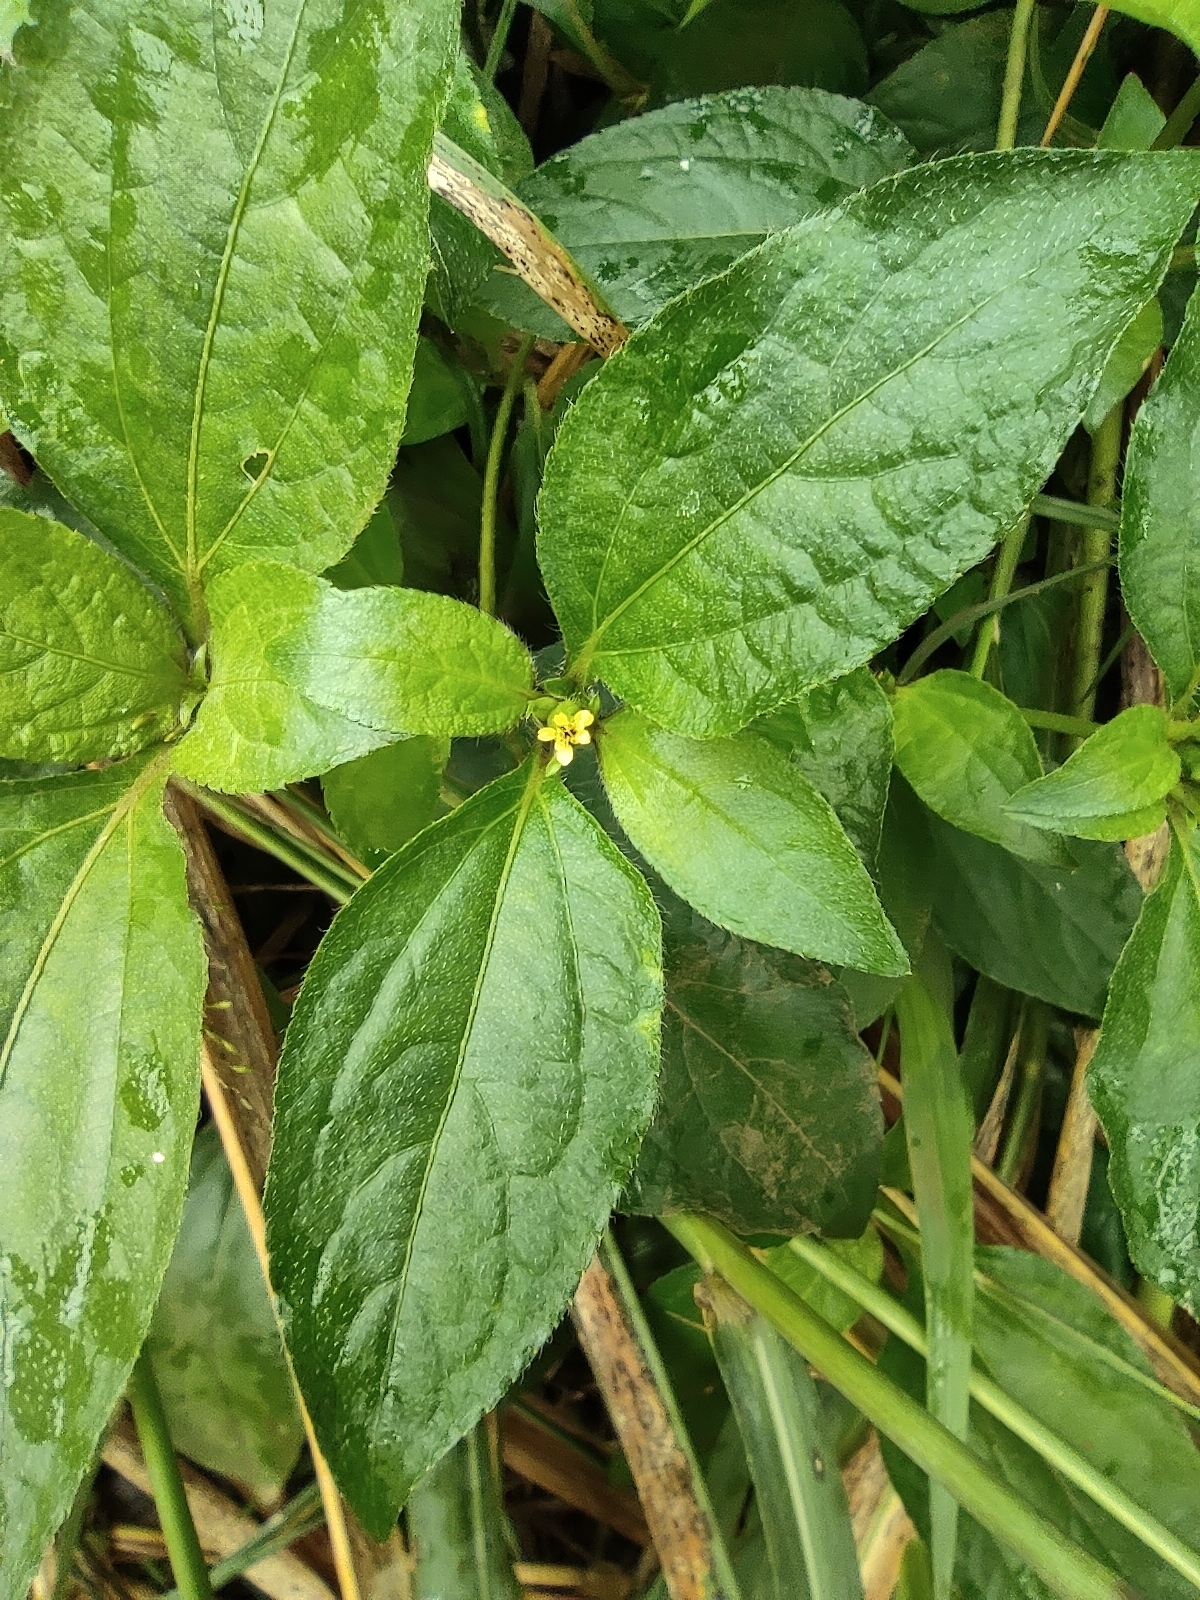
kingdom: Plantae
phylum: Tracheophyta
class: Magnoliopsida
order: Asterales
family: Asteraceae
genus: Synedrella
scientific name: Synedrella nodiflora
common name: Nodeweed
